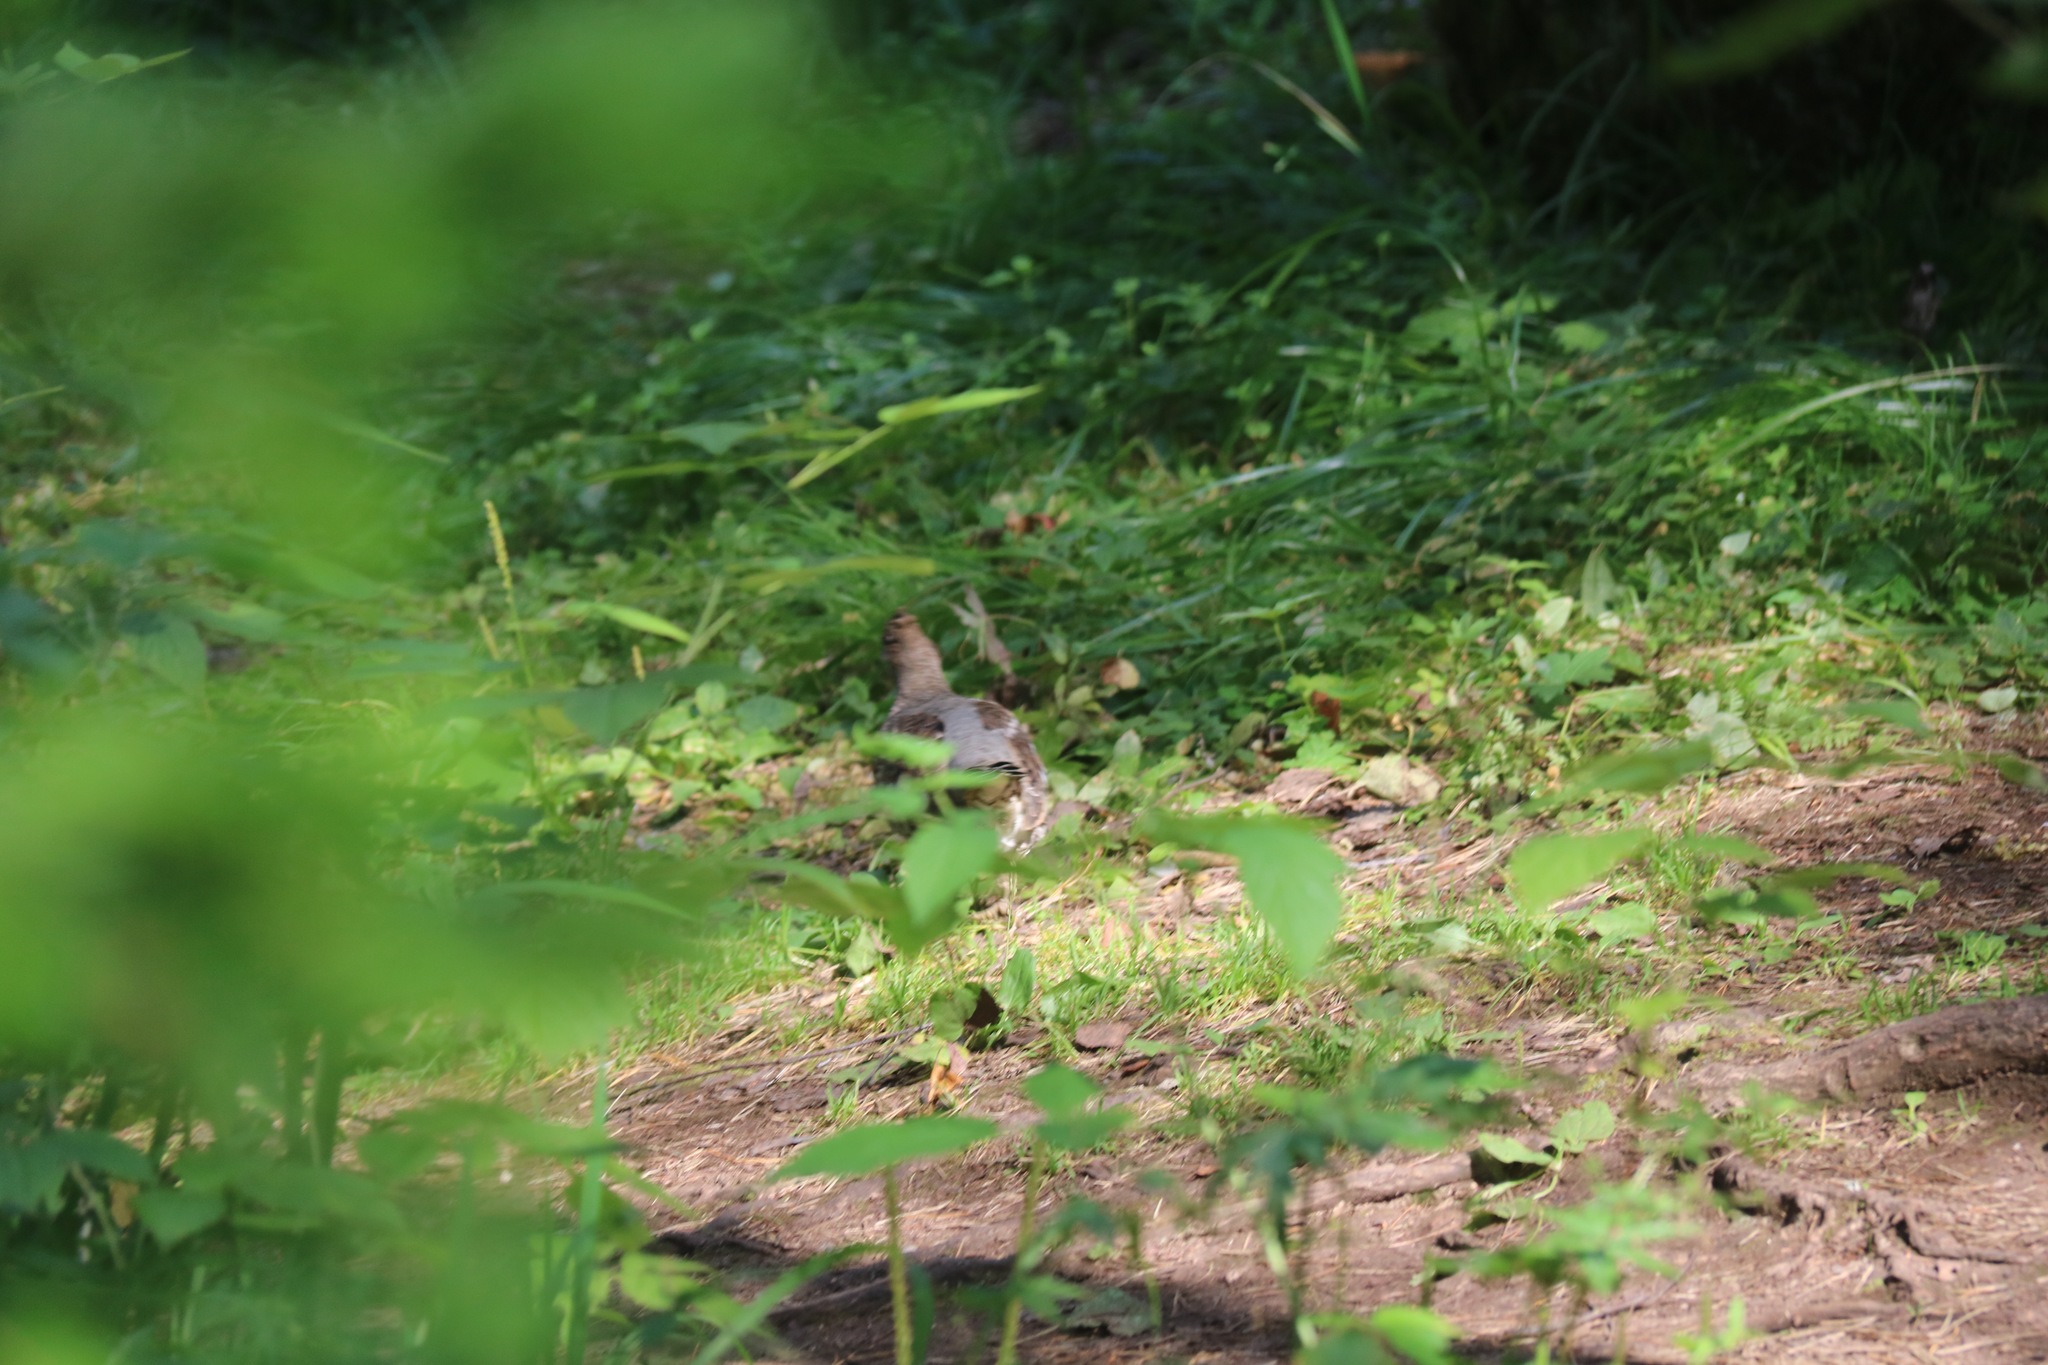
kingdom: Animalia
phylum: Chordata
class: Aves
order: Galliformes
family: Phasianidae
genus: Tetrastes
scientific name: Tetrastes bonasia
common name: Hazel grouse
